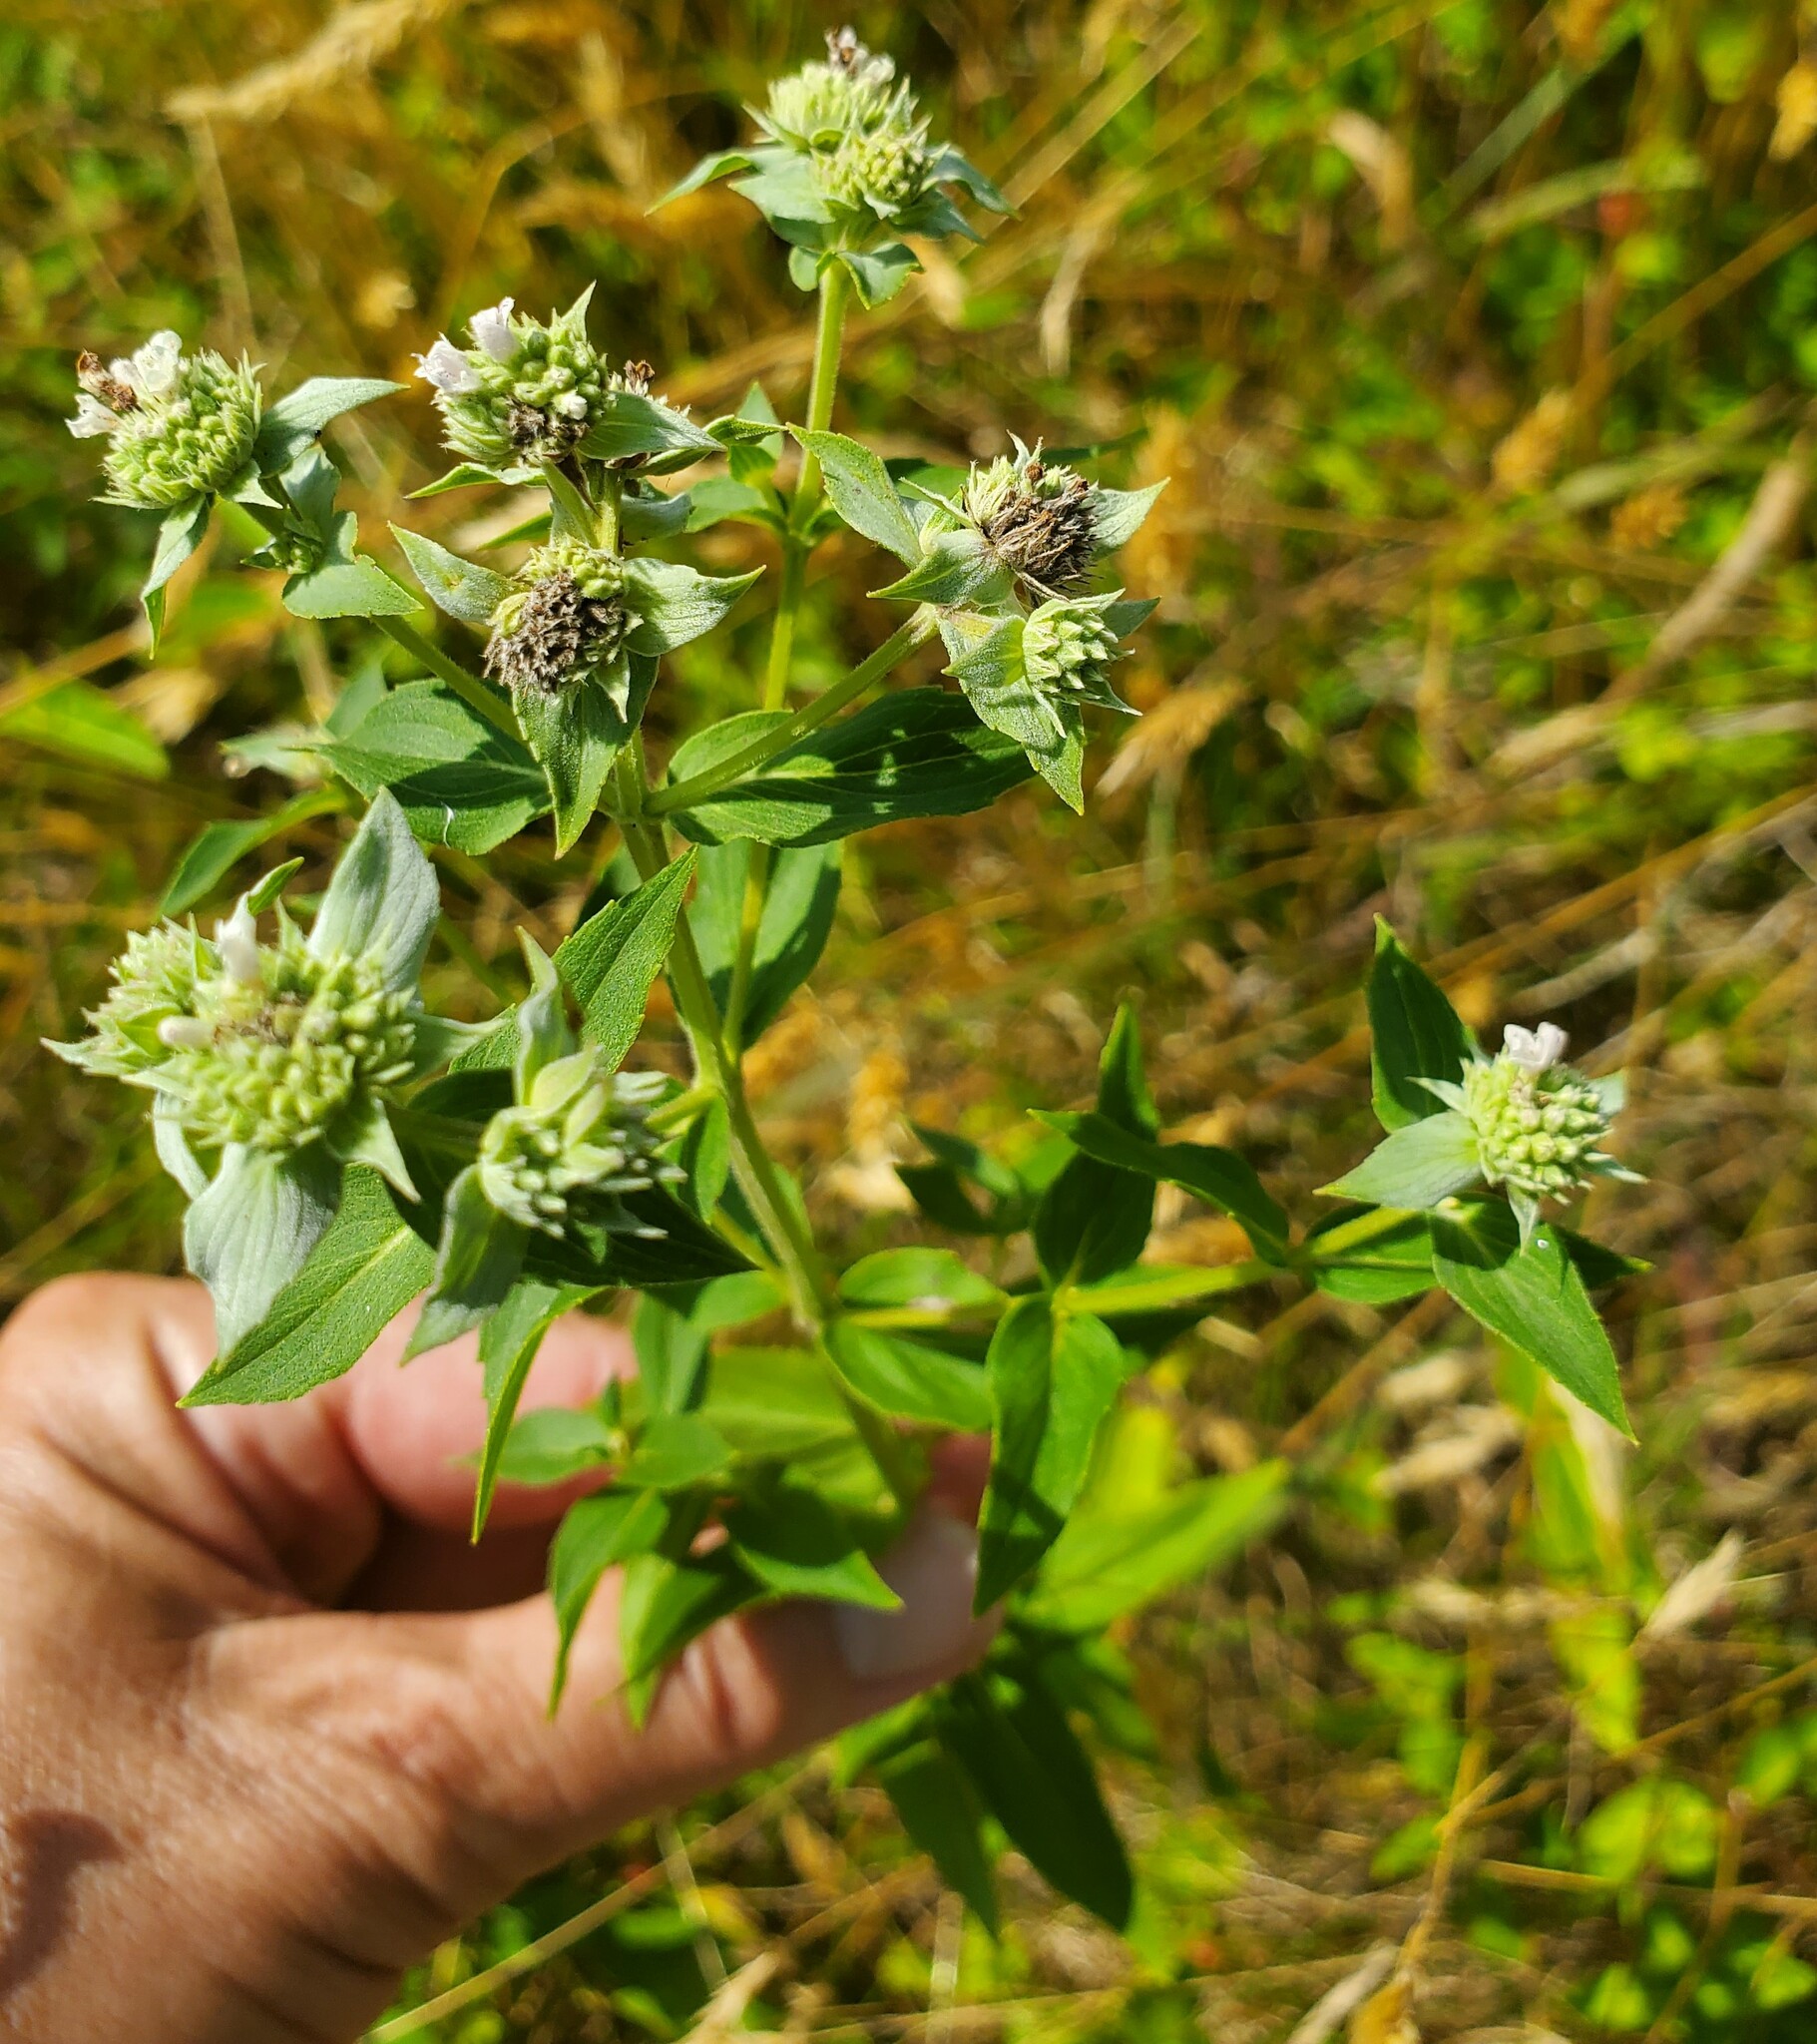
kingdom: Plantae
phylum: Tracheophyta
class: Magnoliopsida
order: Lamiales
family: Lamiaceae
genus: Pycnanthemum
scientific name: Pycnanthemum muticum
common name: Blunt mountain-mint
